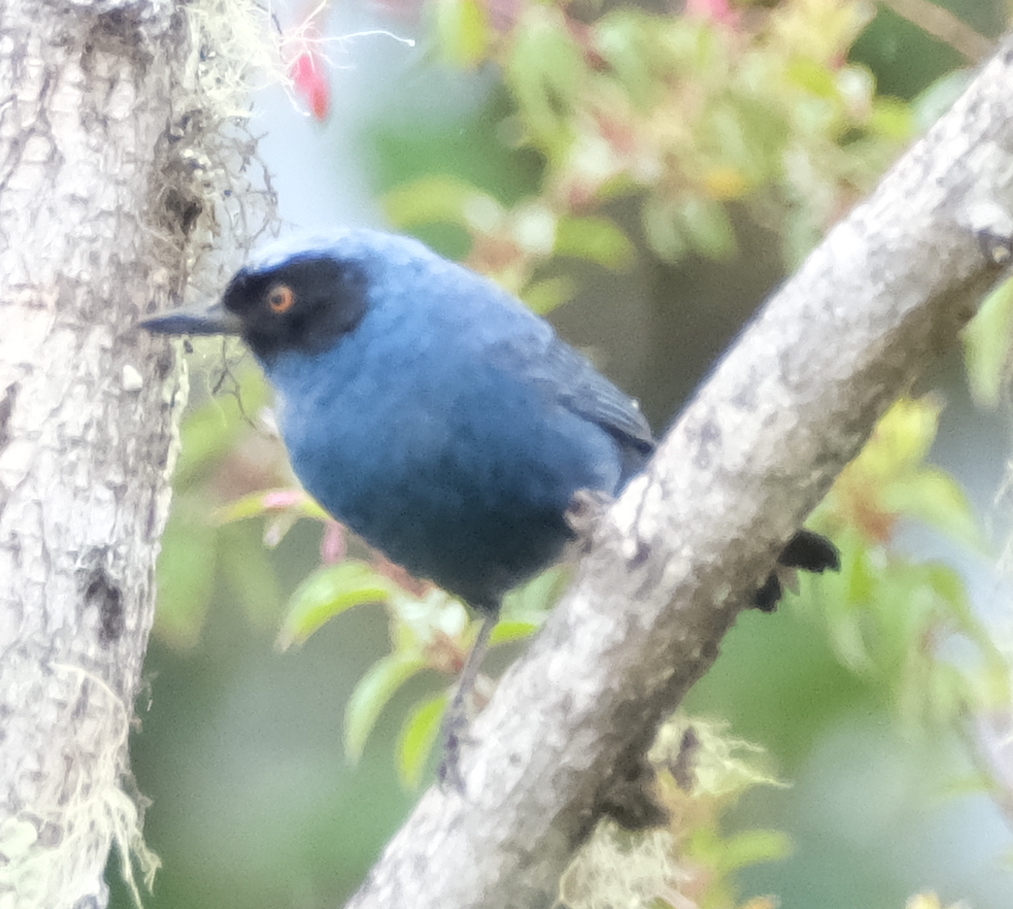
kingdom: Animalia
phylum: Chordata
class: Aves
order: Passeriformes
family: Thraupidae
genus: Diglossa
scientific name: Diglossa cyanea
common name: Masked flowerpiercer
